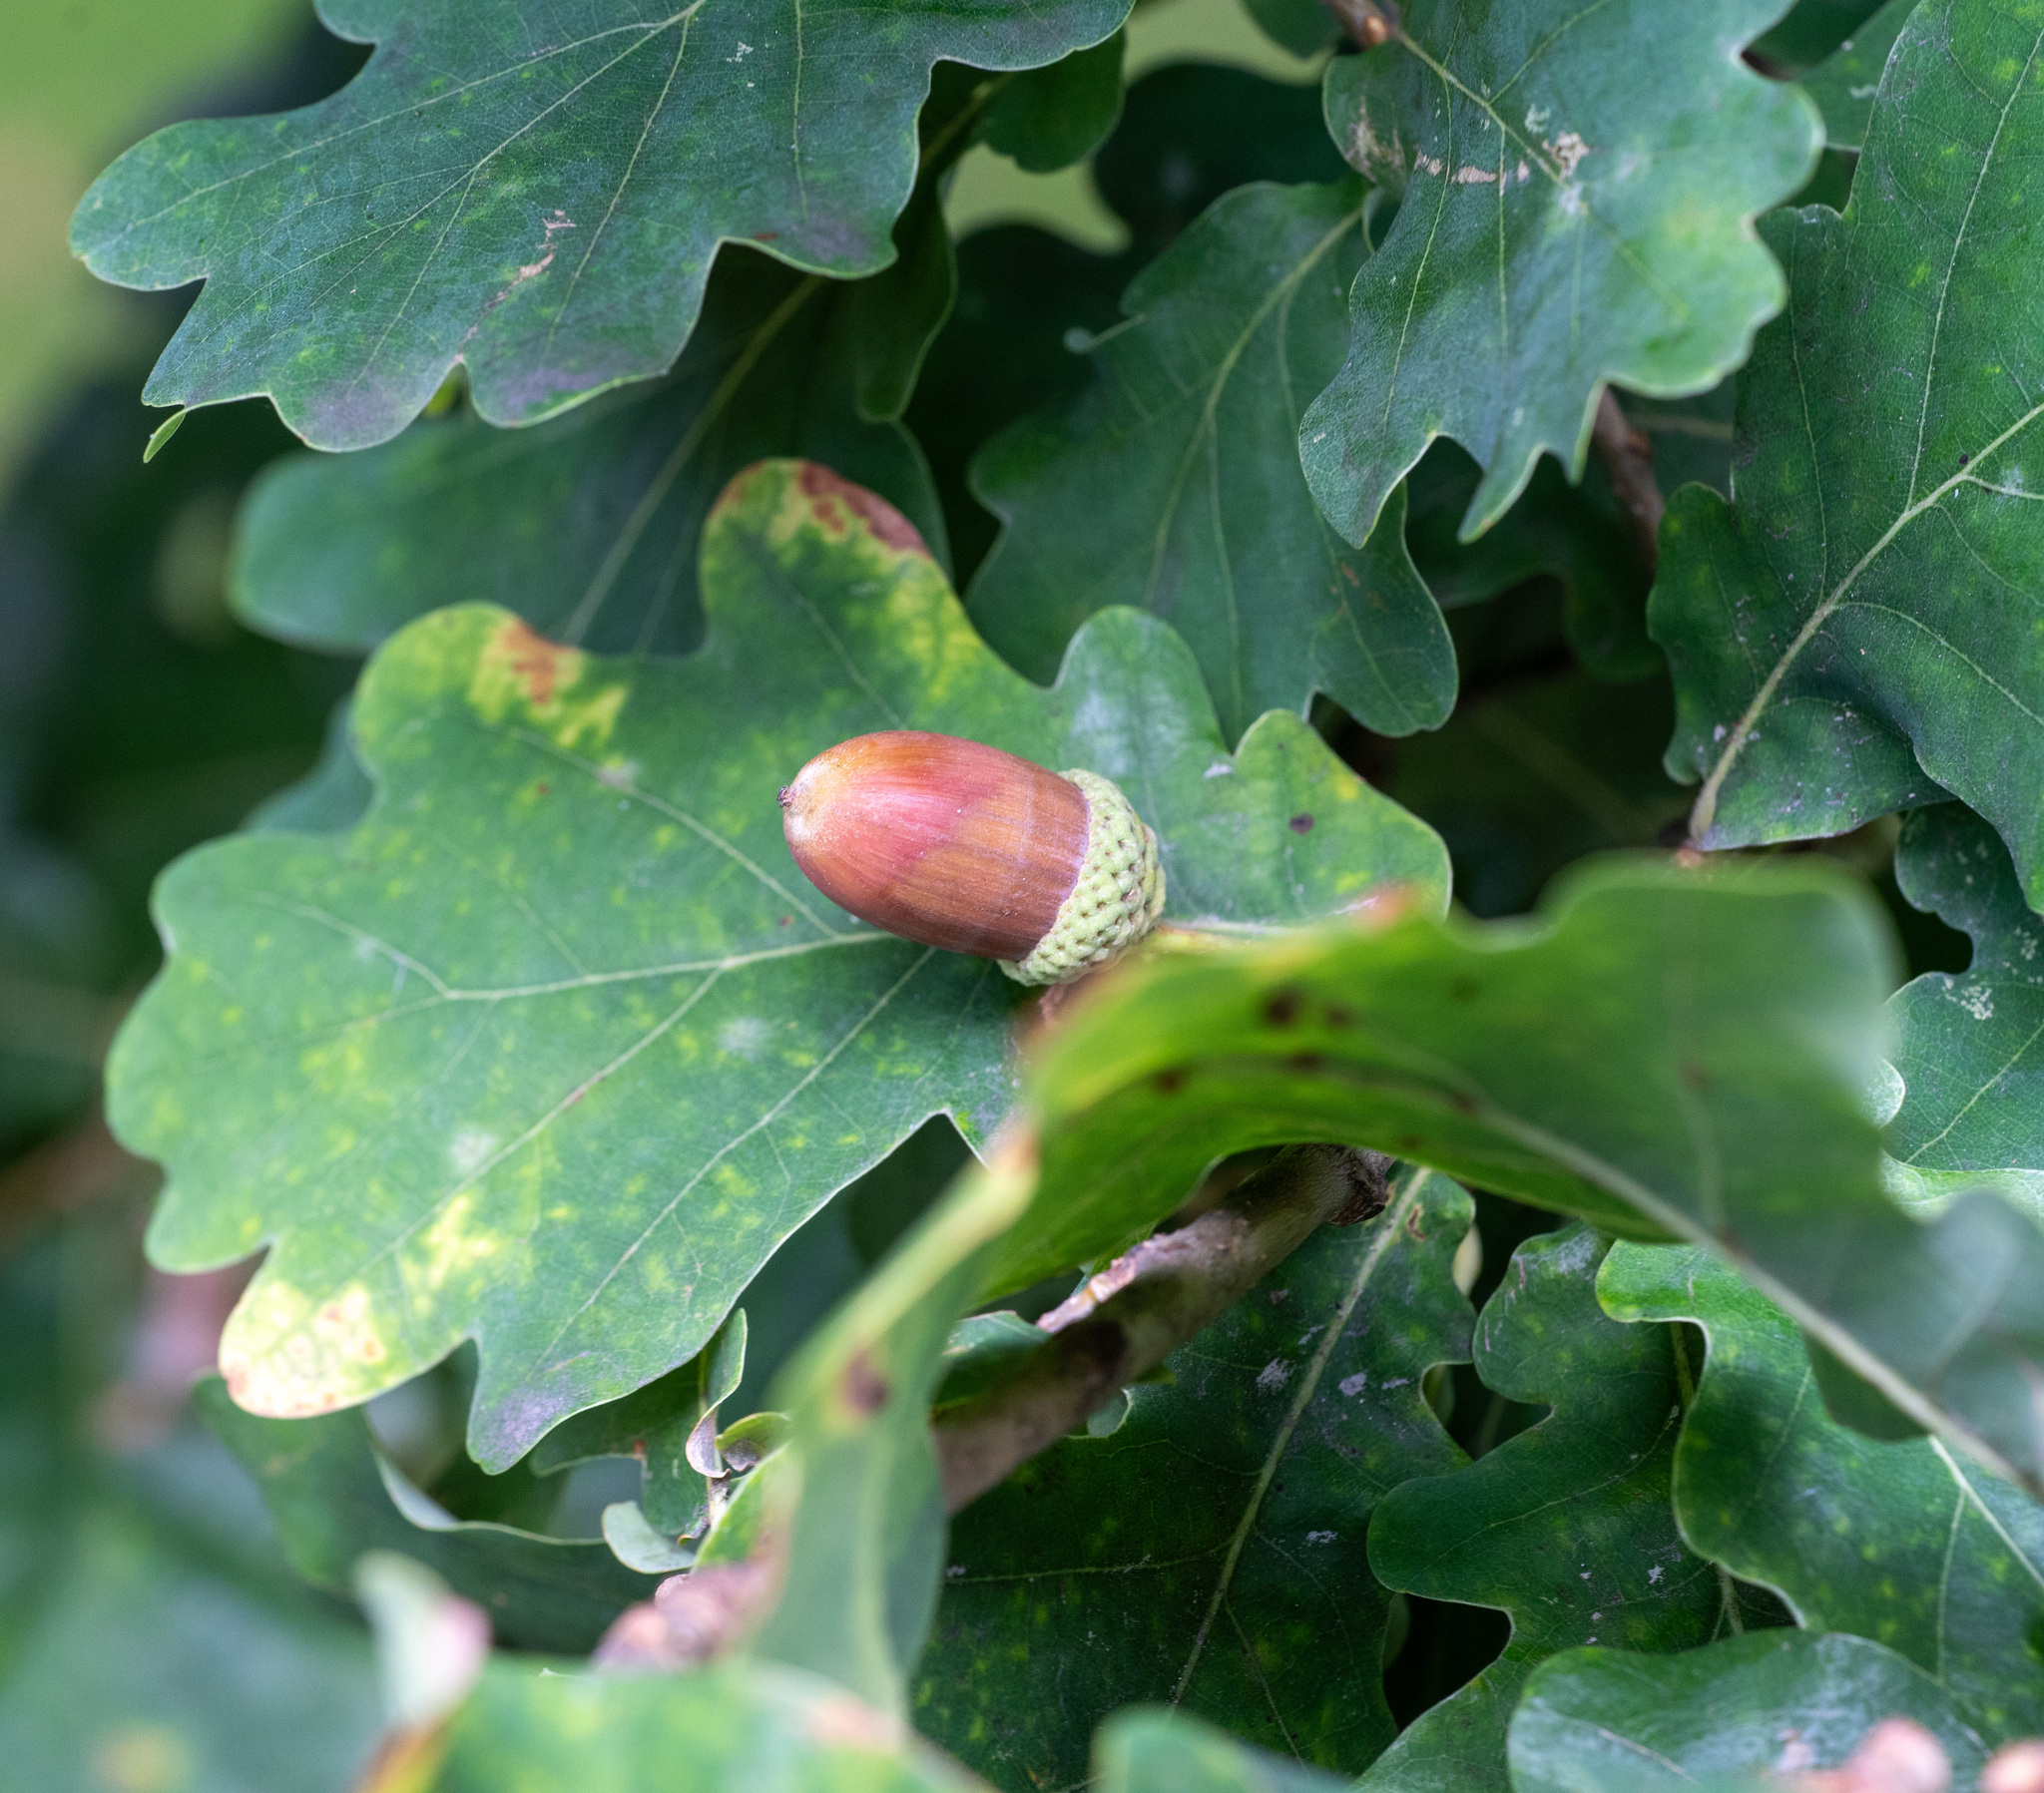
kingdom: Plantae
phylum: Tracheophyta
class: Magnoliopsida
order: Fagales
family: Fagaceae
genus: Quercus
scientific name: Quercus robur
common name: Pedunculate oak
